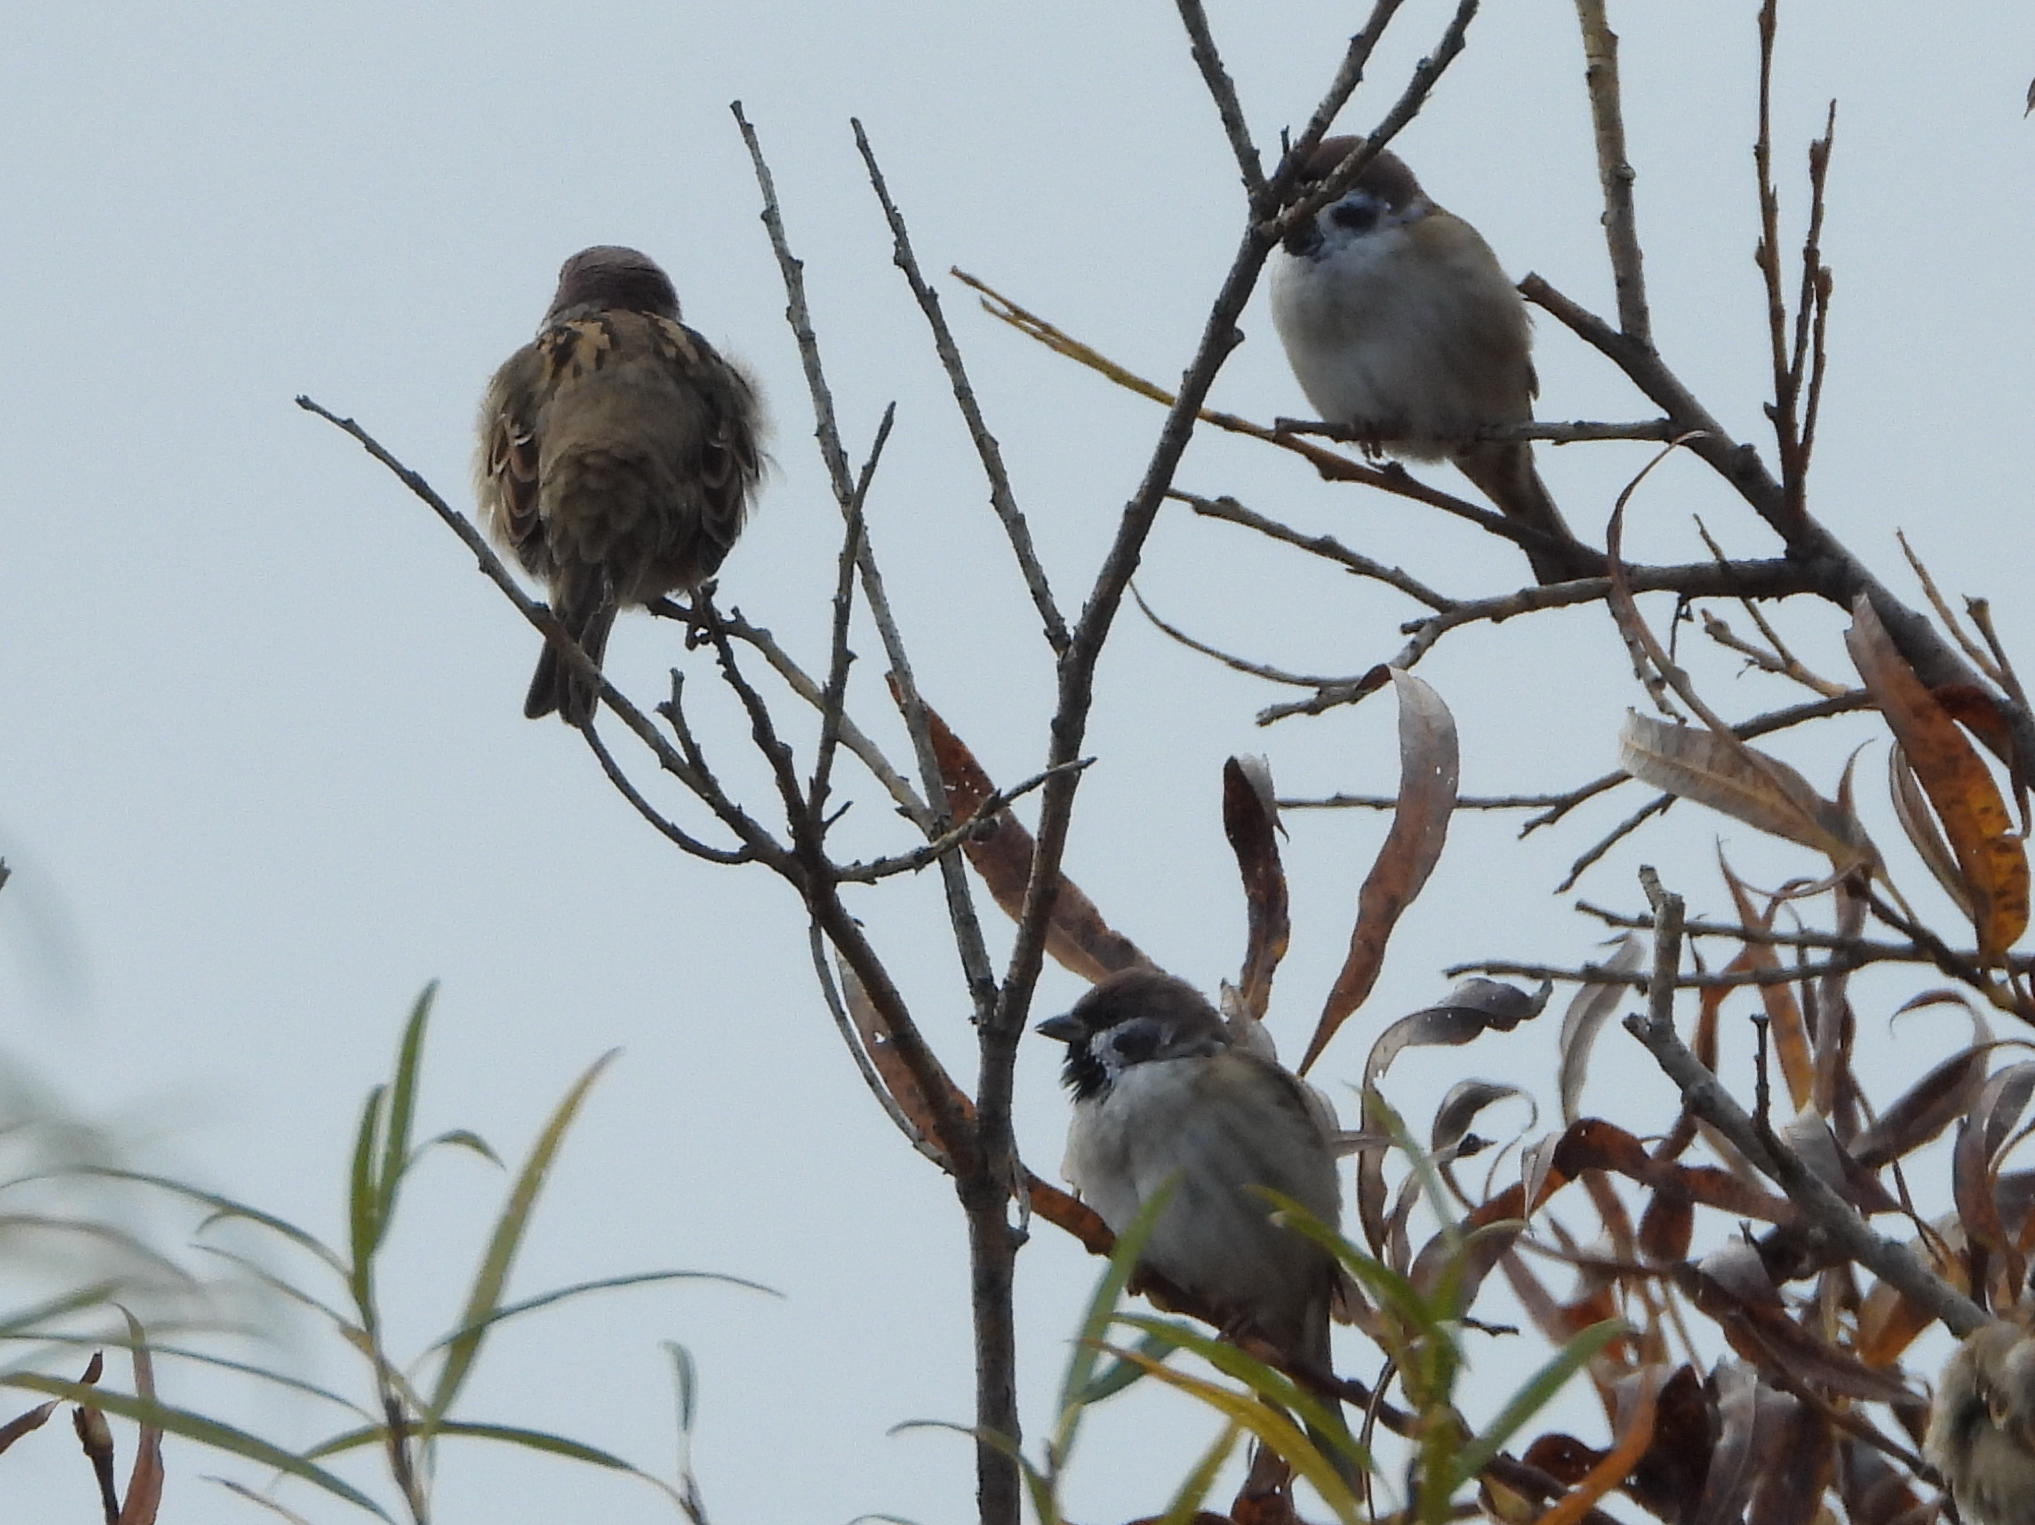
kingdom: Animalia
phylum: Chordata
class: Aves
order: Passeriformes
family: Passeridae
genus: Passer
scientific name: Passer montanus
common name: Eurasian tree sparrow
